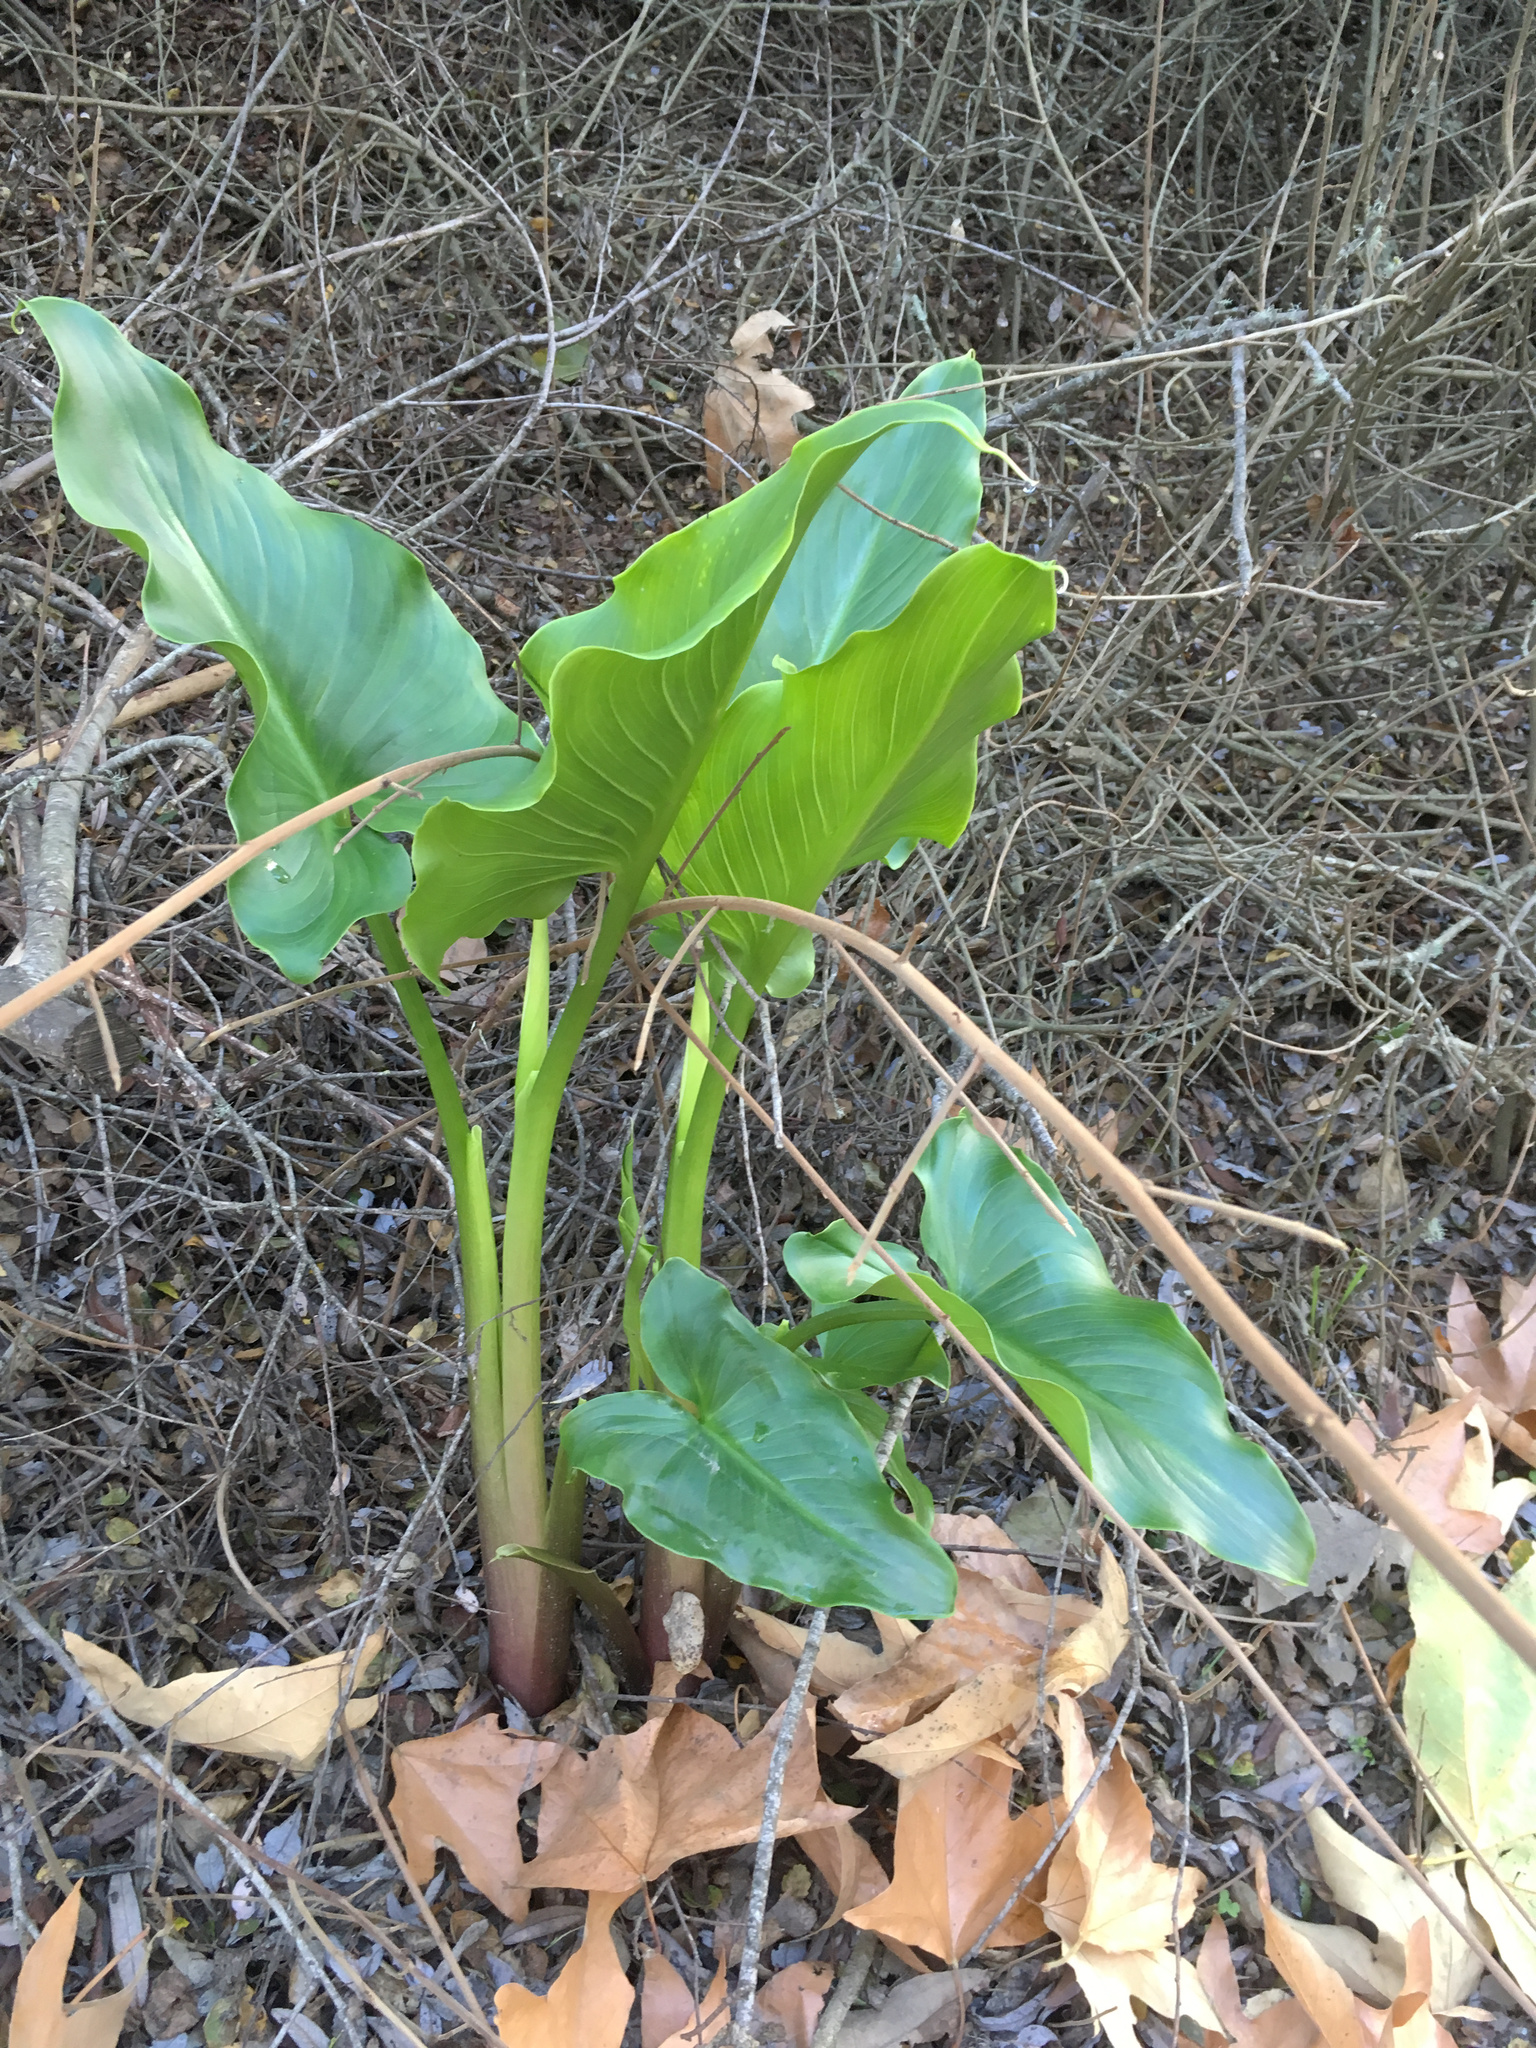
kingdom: Plantae
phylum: Tracheophyta
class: Liliopsida
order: Alismatales
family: Araceae
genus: Zantedeschia
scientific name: Zantedeschia aethiopica
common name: Altar-lily
